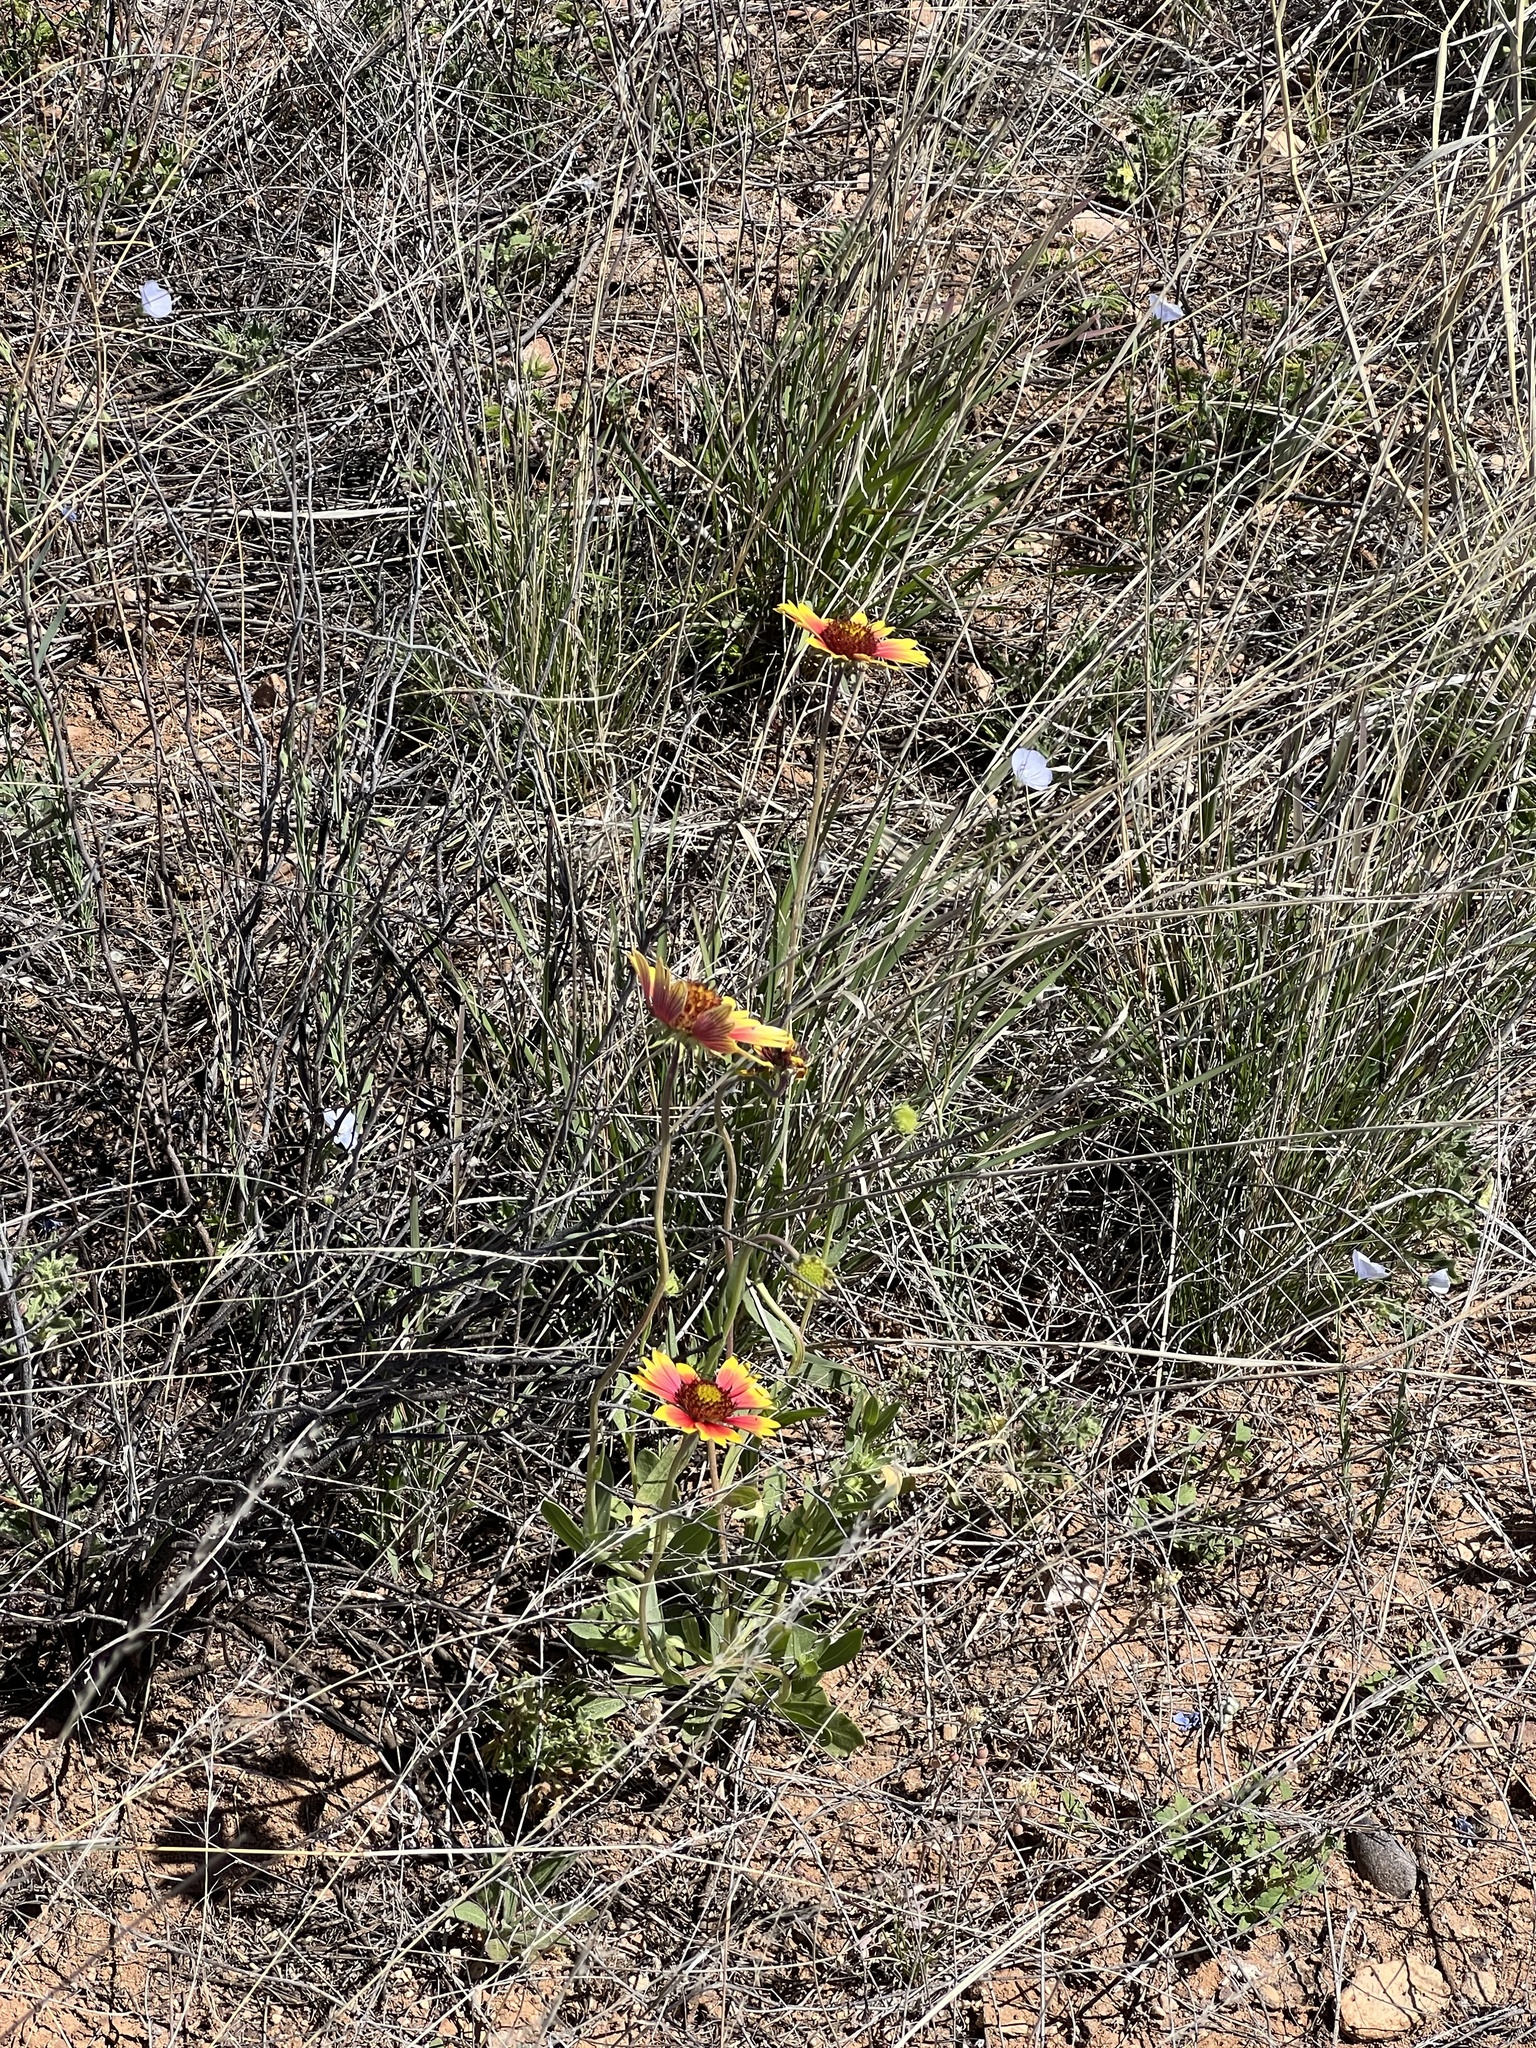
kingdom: Plantae
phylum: Tracheophyta
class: Magnoliopsida
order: Asterales
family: Asteraceae
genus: Gaillardia
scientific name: Gaillardia pulchella
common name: Firewheel
